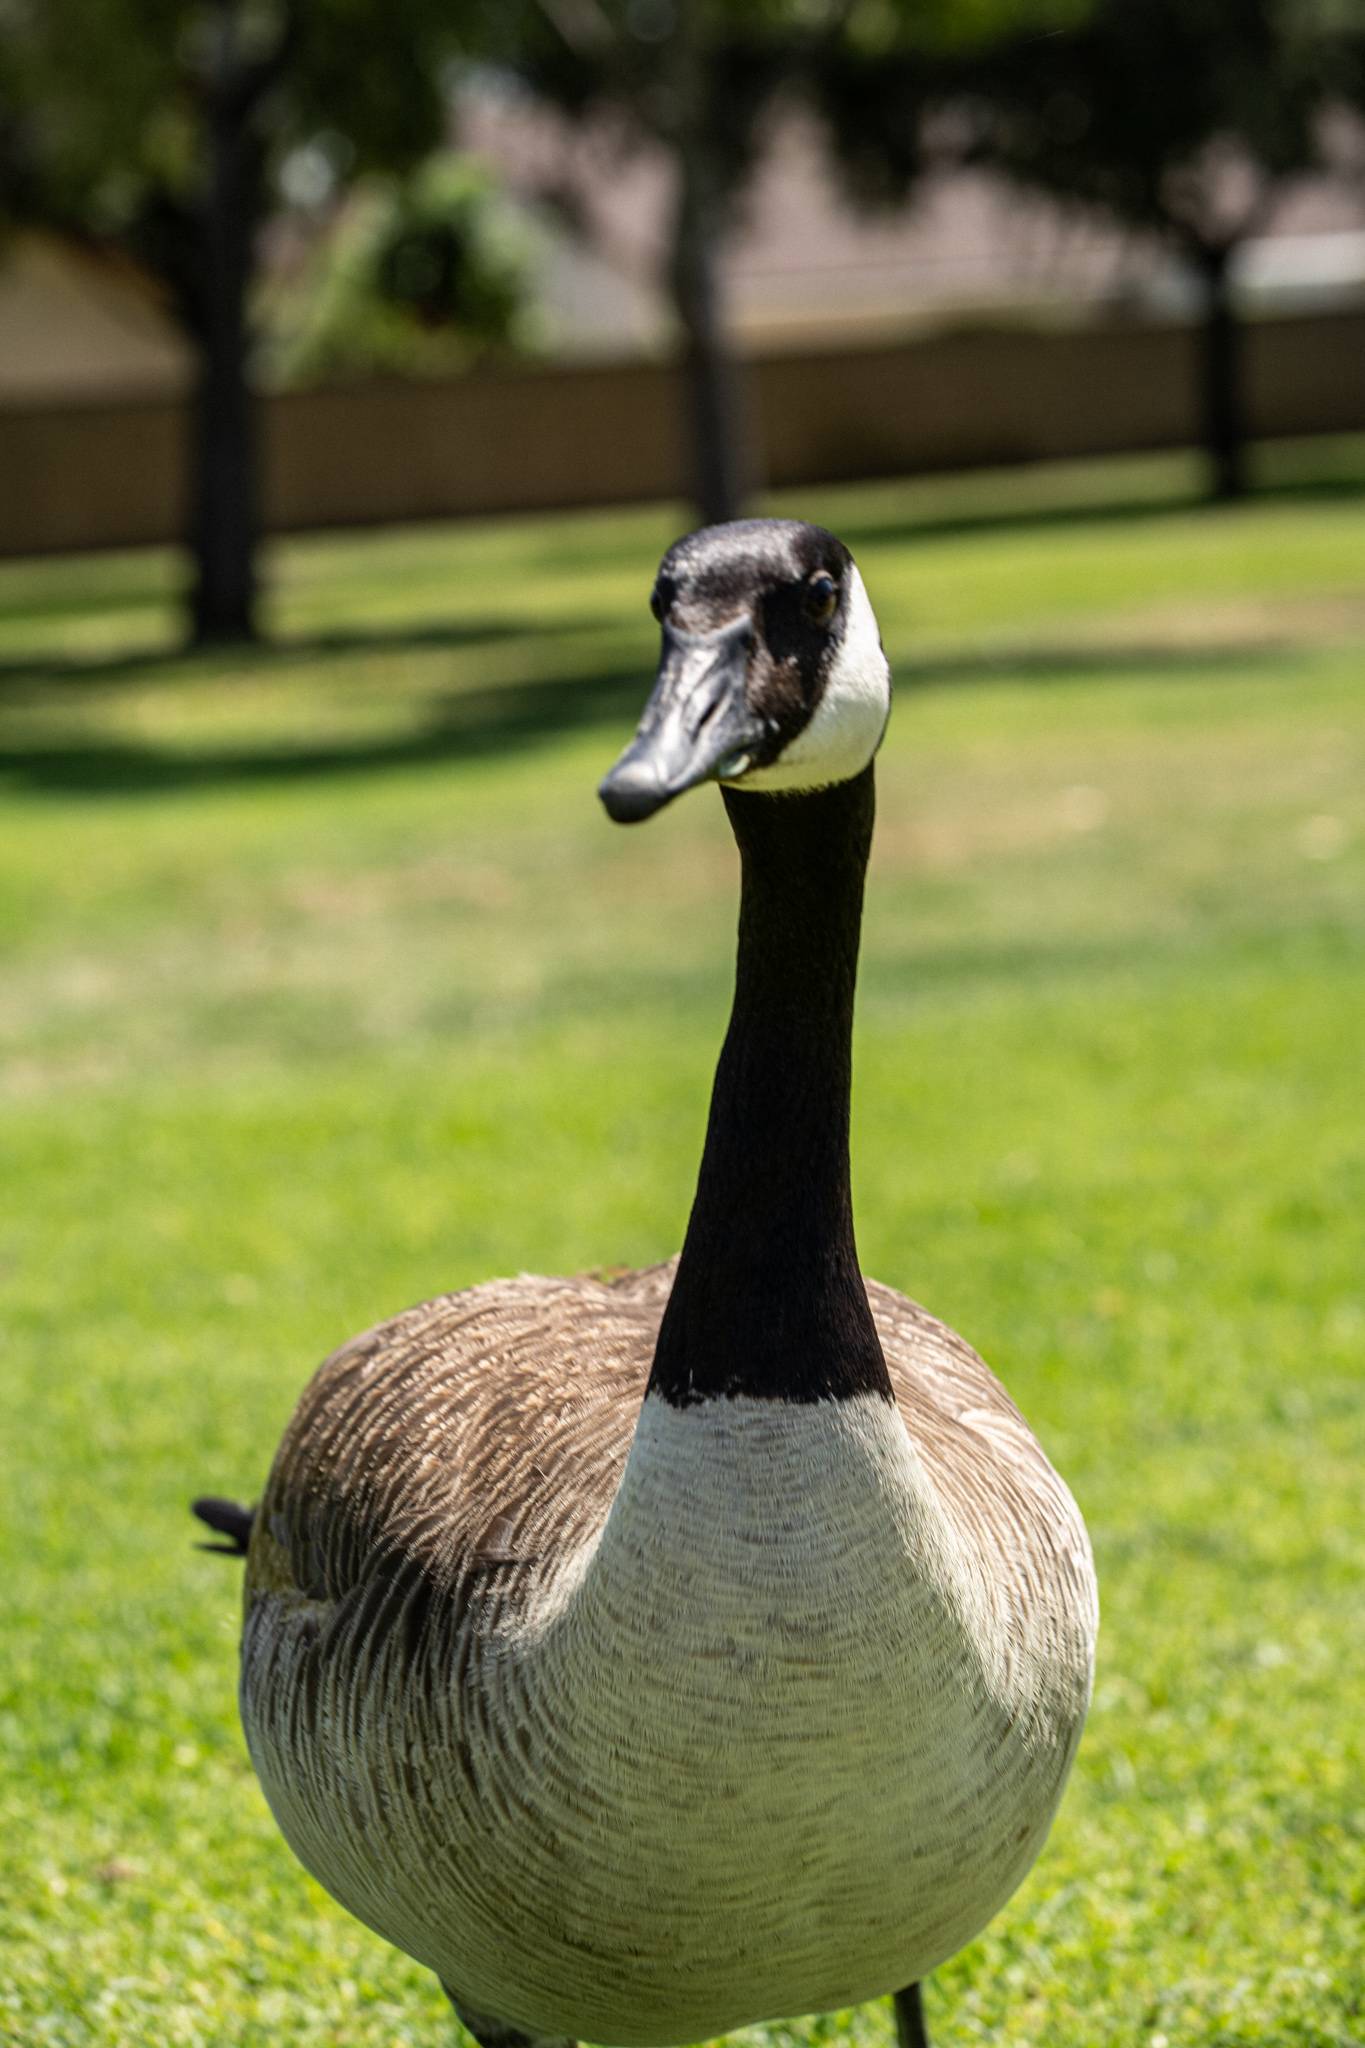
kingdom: Animalia
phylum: Chordata
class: Aves
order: Anseriformes
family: Anatidae
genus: Branta
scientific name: Branta canadensis
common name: Canada goose
